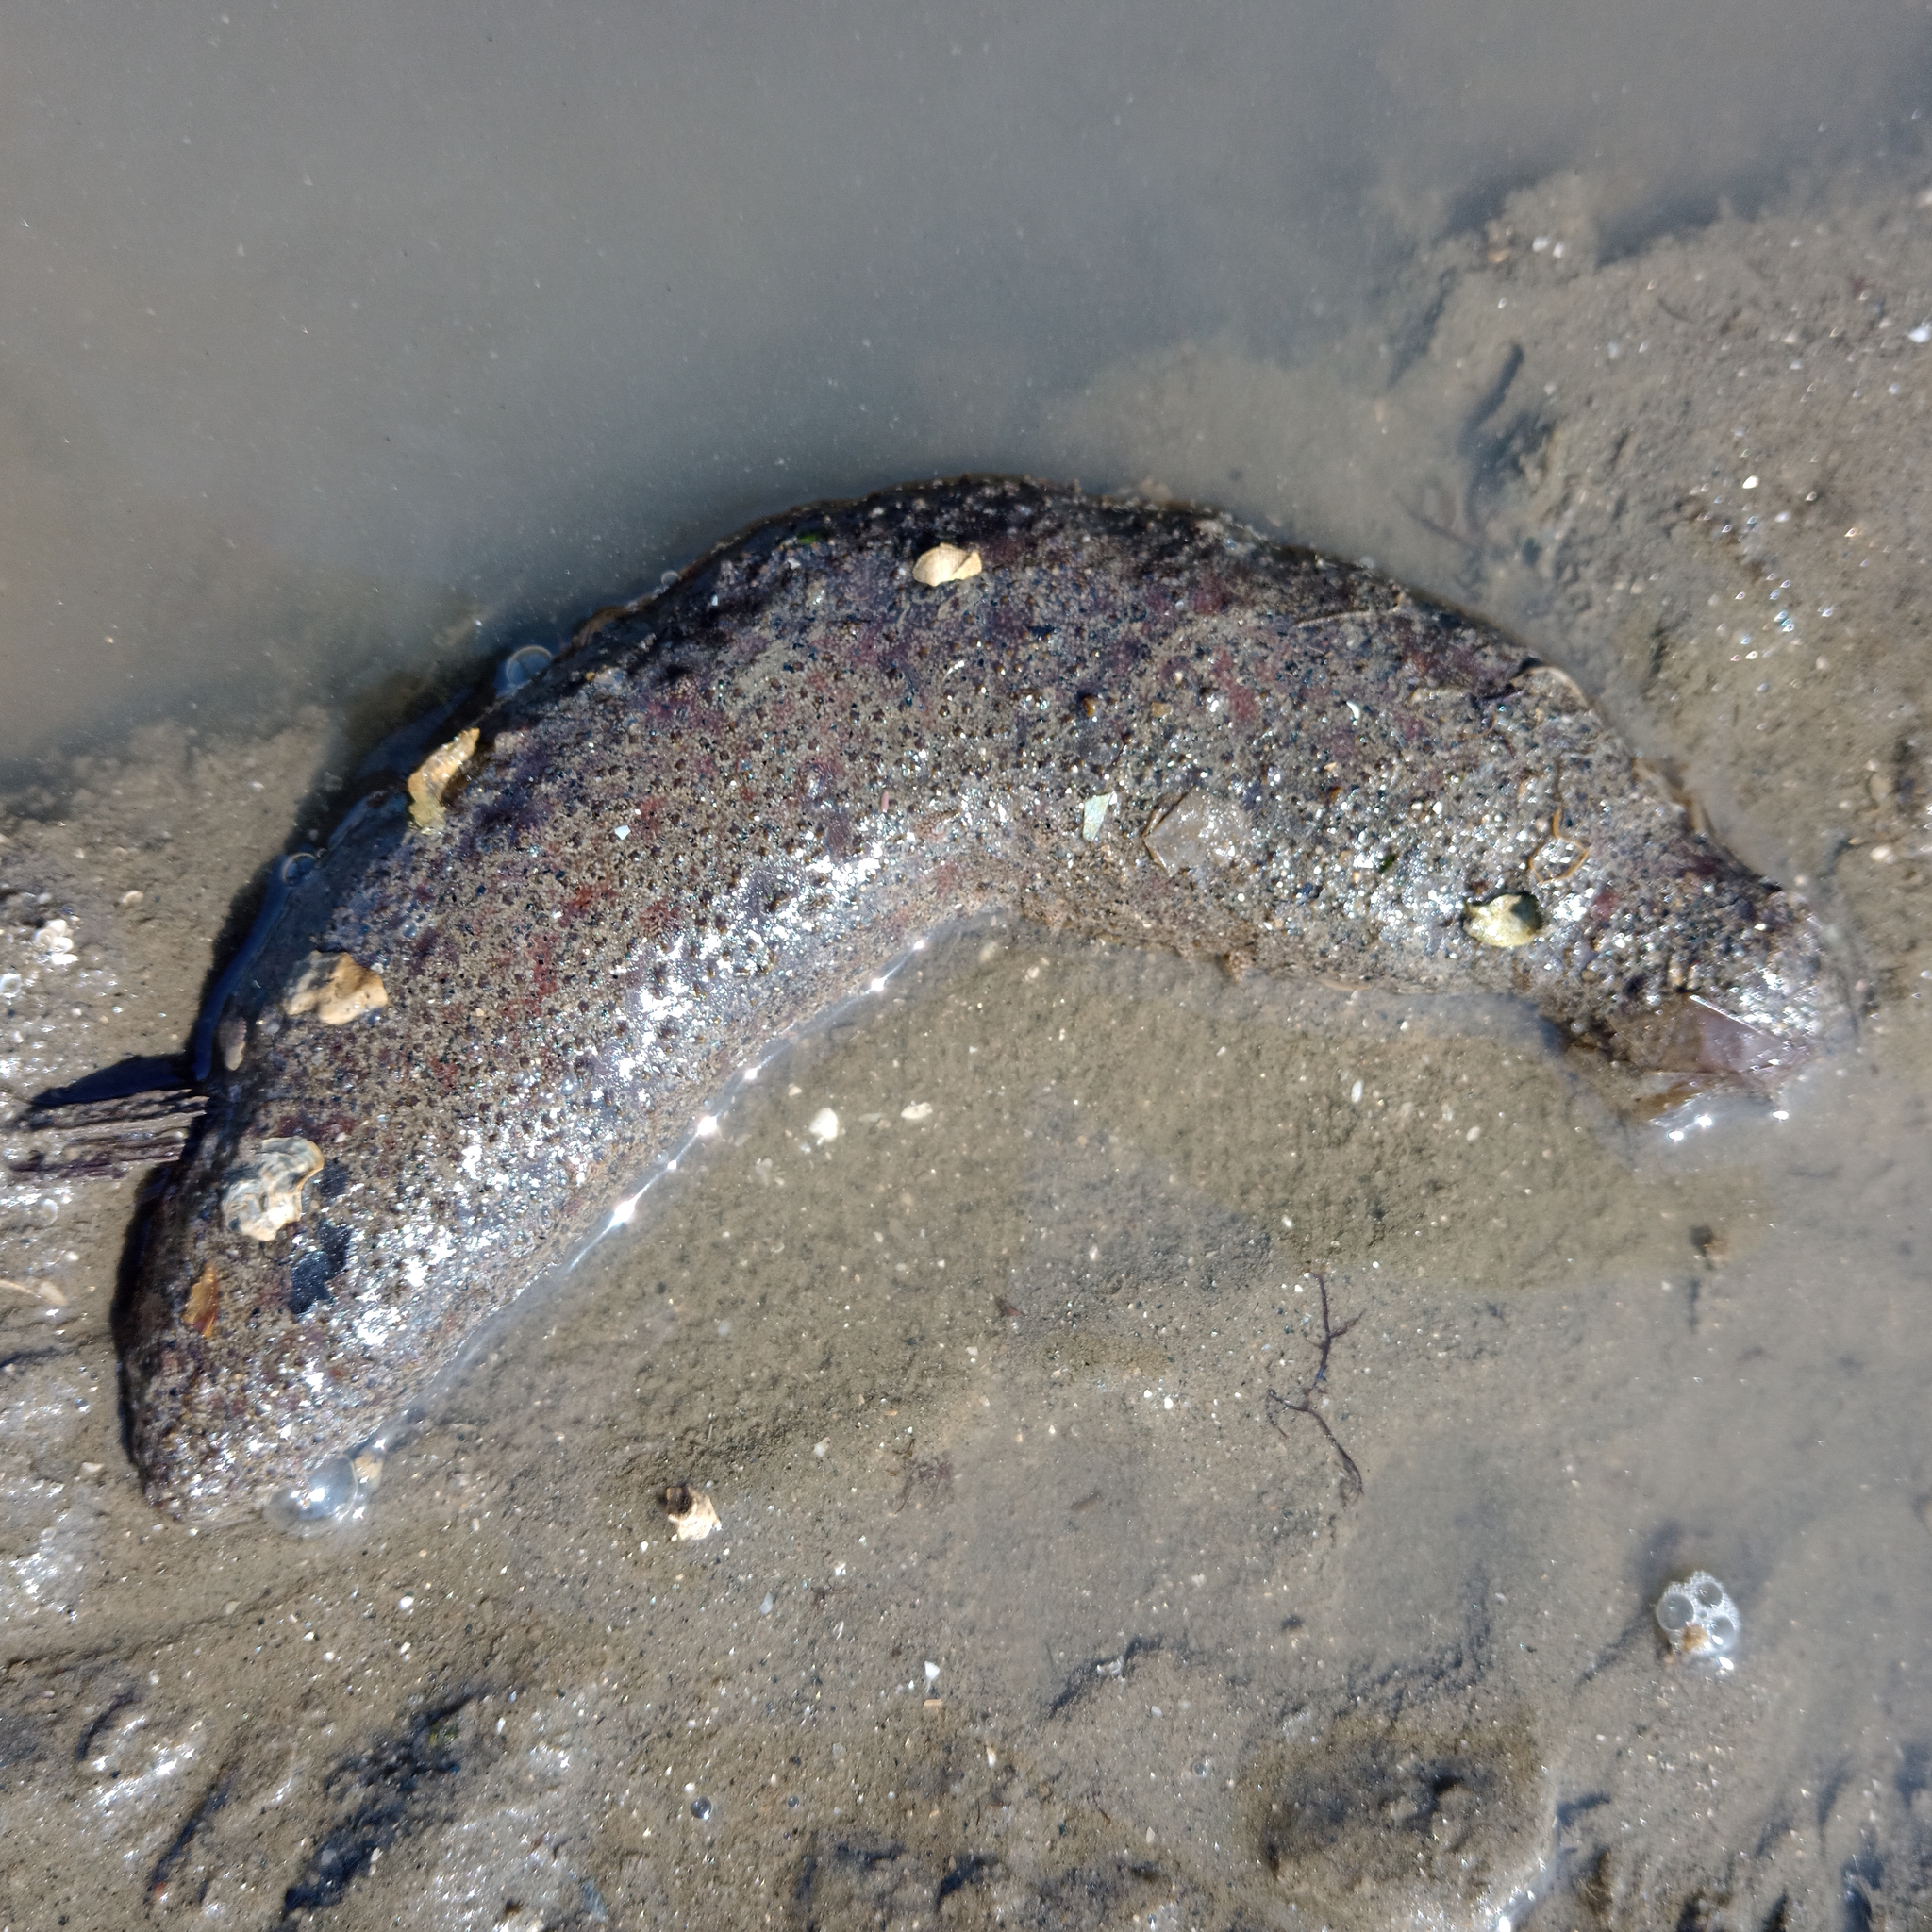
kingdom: Animalia
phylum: Echinodermata
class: Holothuroidea
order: Holothuriida
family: Holothuriidae
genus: Holothuria
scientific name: Holothuria grisea
